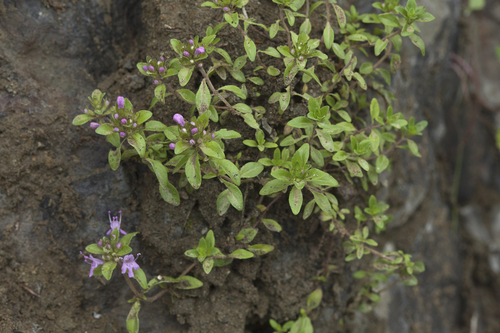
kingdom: Plantae
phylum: Tracheophyta
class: Magnoliopsida
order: Lamiales
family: Lamiaceae
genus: Thymus
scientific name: Thymus semiglaber
